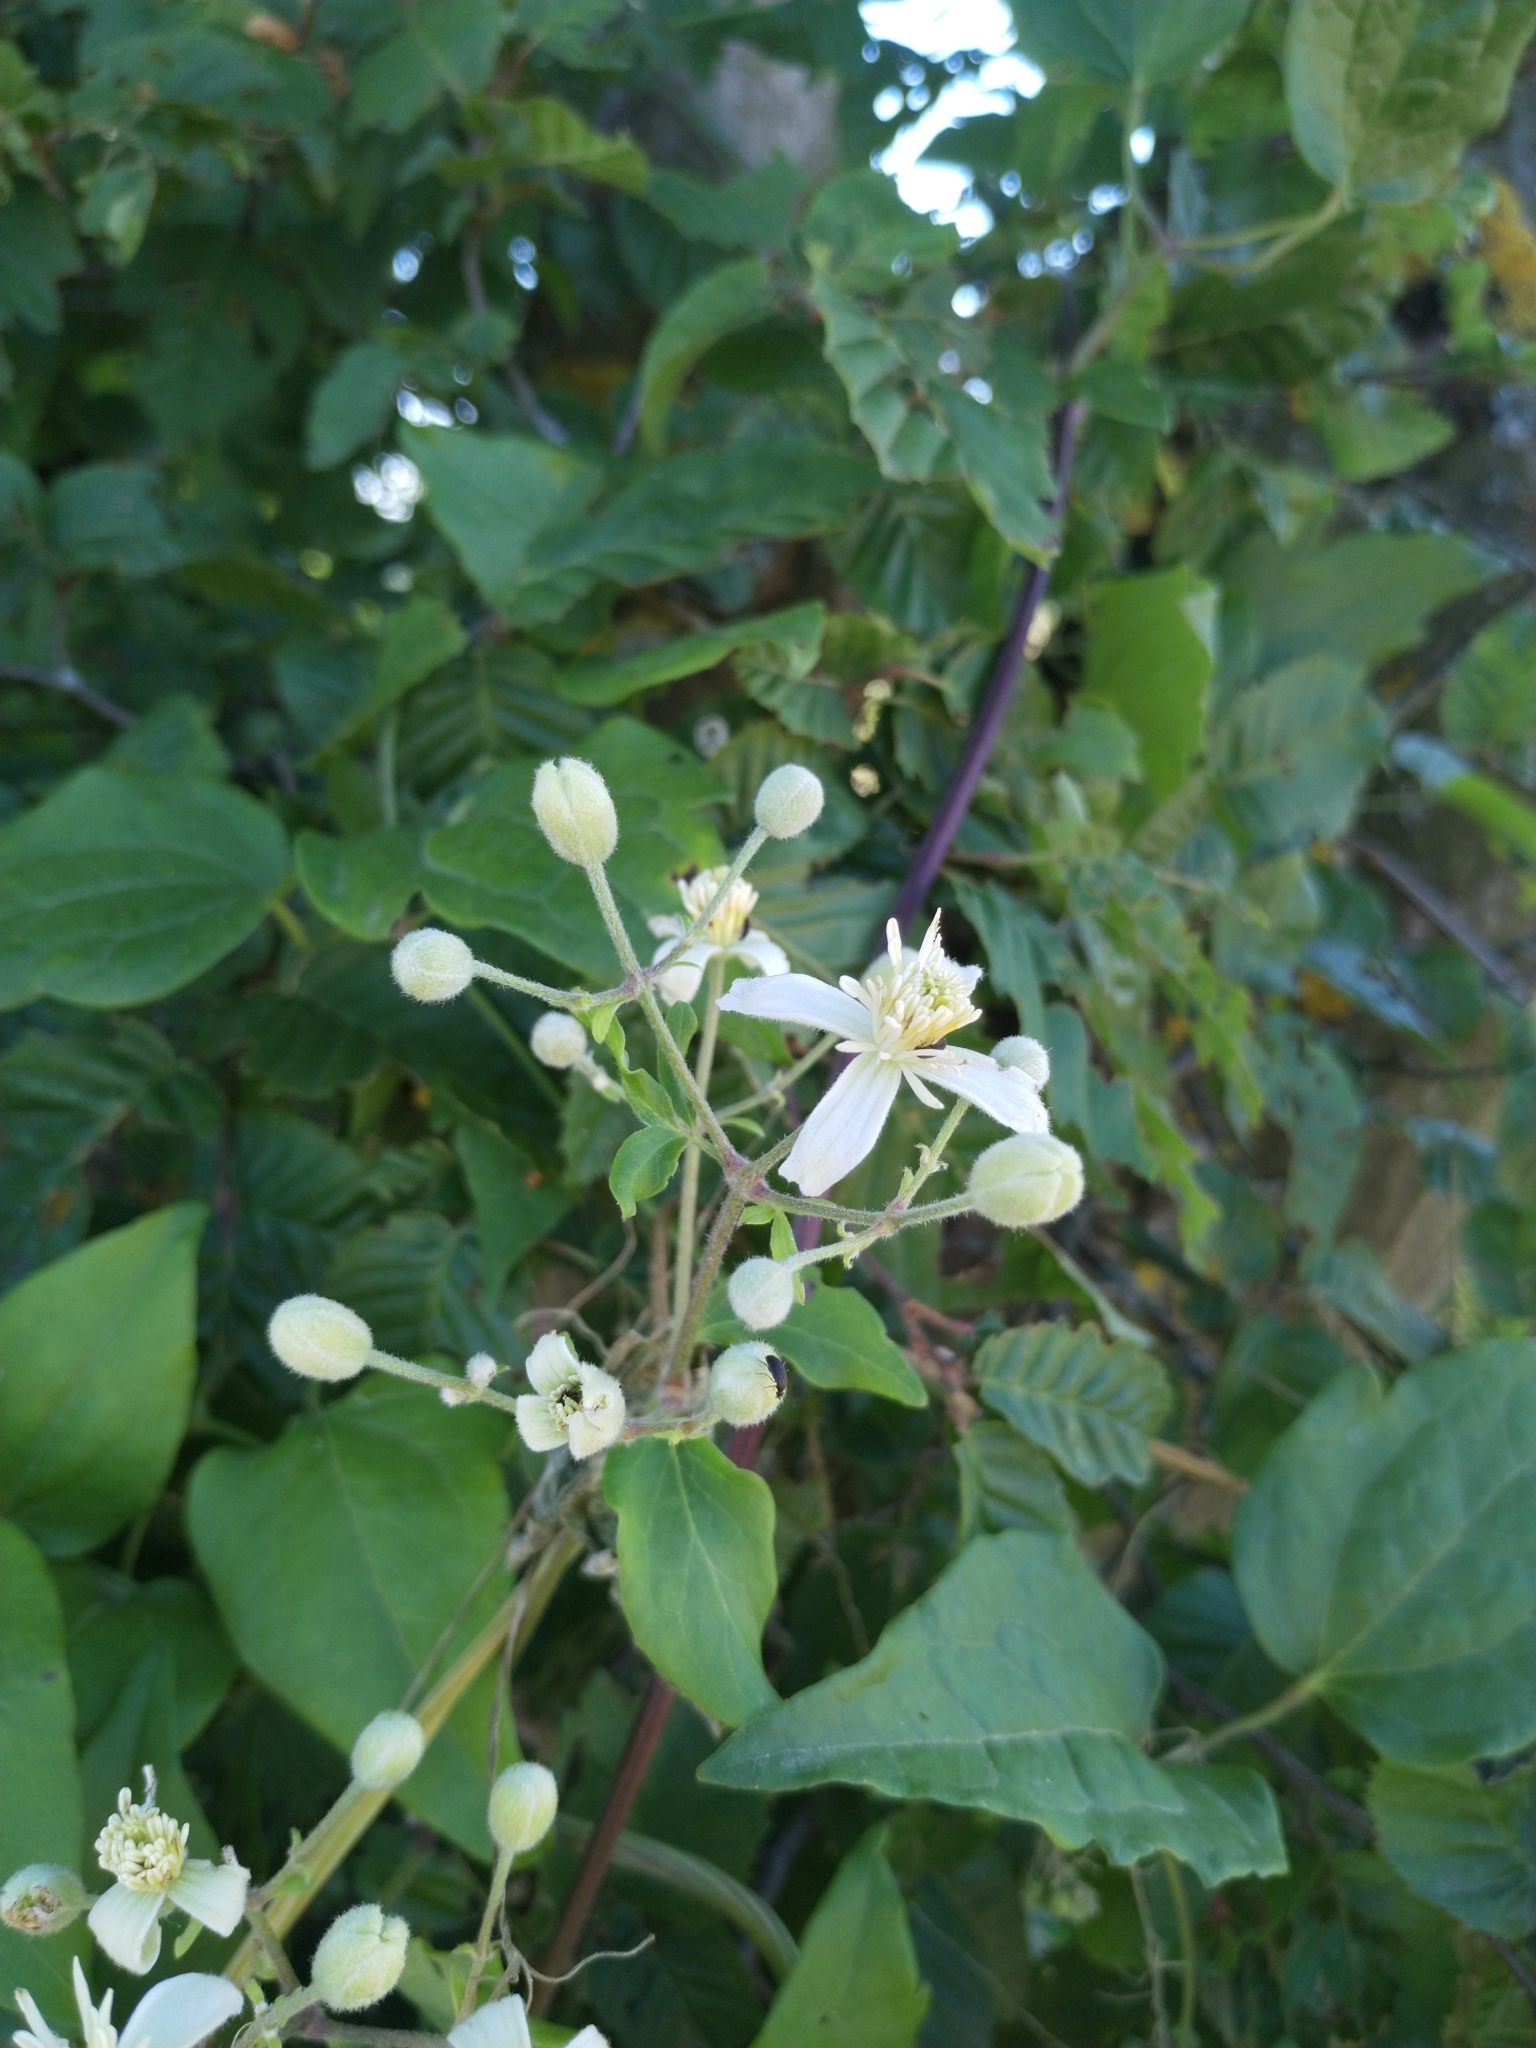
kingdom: Plantae
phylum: Tracheophyta
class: Magnoliopsida
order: Ranunculales
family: Ranunculaceae
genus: Clematis
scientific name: Clematis vitalba
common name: Evergreen clematis
